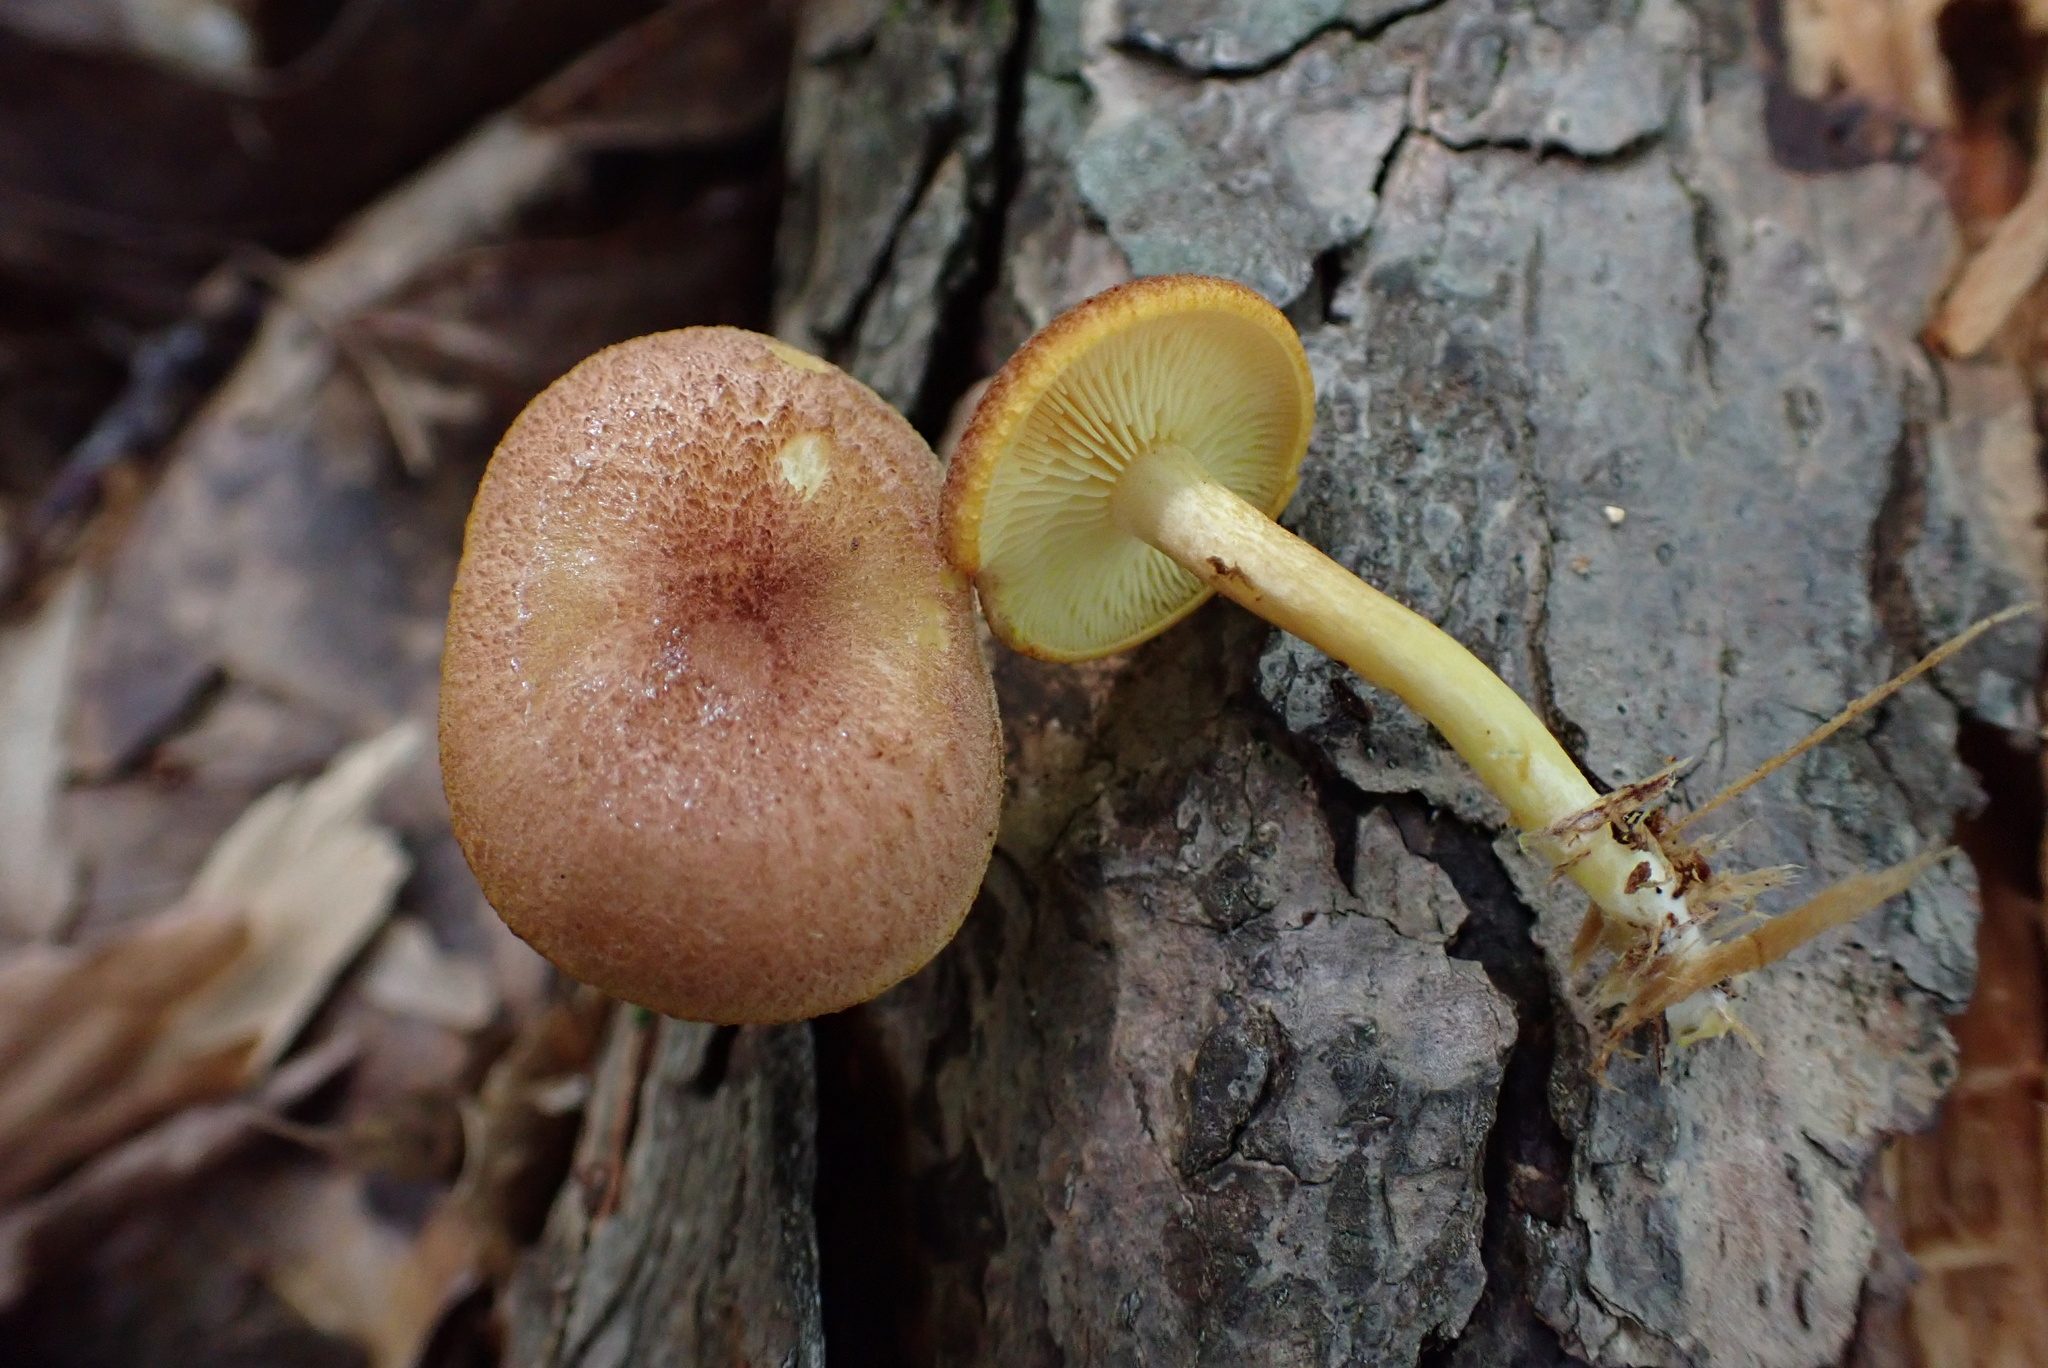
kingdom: Fungi
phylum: Basidiomycota
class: Agaricomycetes
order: Agaricales
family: Tricholomataceae
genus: Tricholomopsis
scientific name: Tricholomopsis flammula
